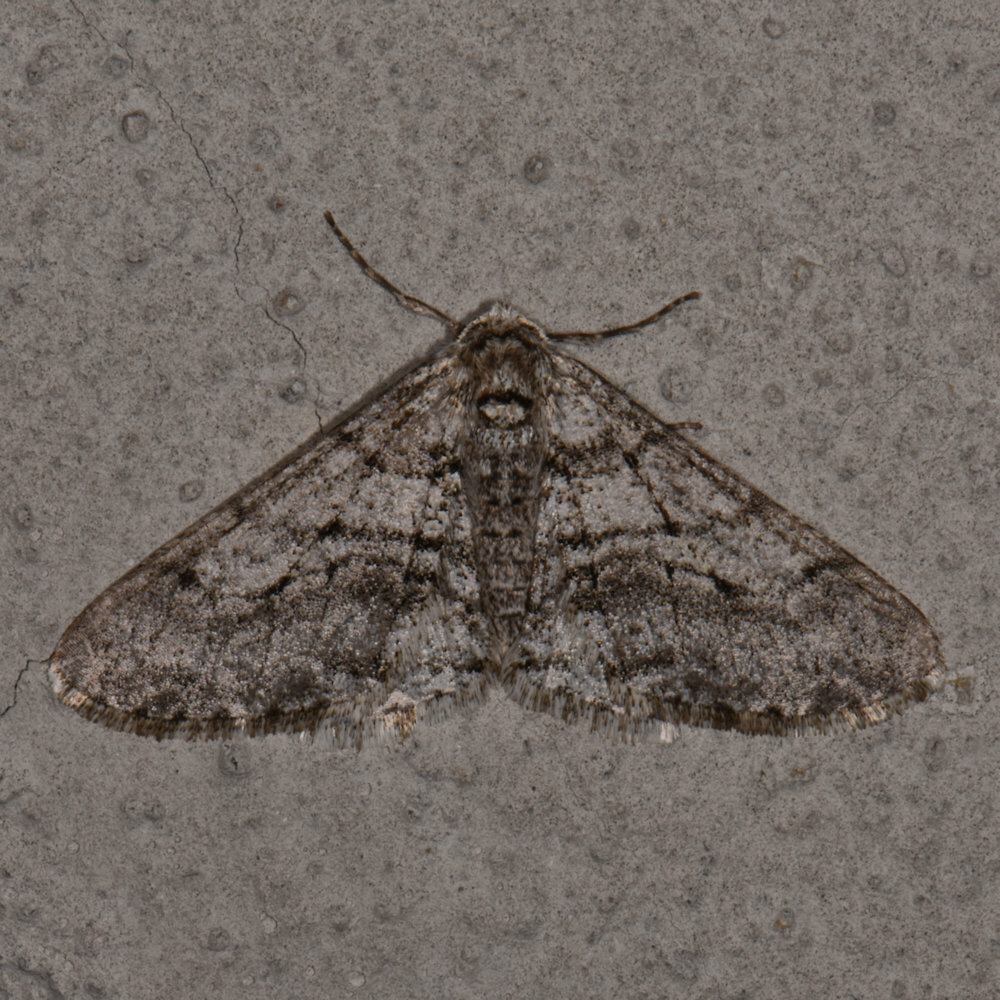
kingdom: Animalia
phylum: Arthropoda
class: Insecta
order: Lepidoptera
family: Geometridae
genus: Phigalia
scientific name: Phigalia titea
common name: Spiny looper
